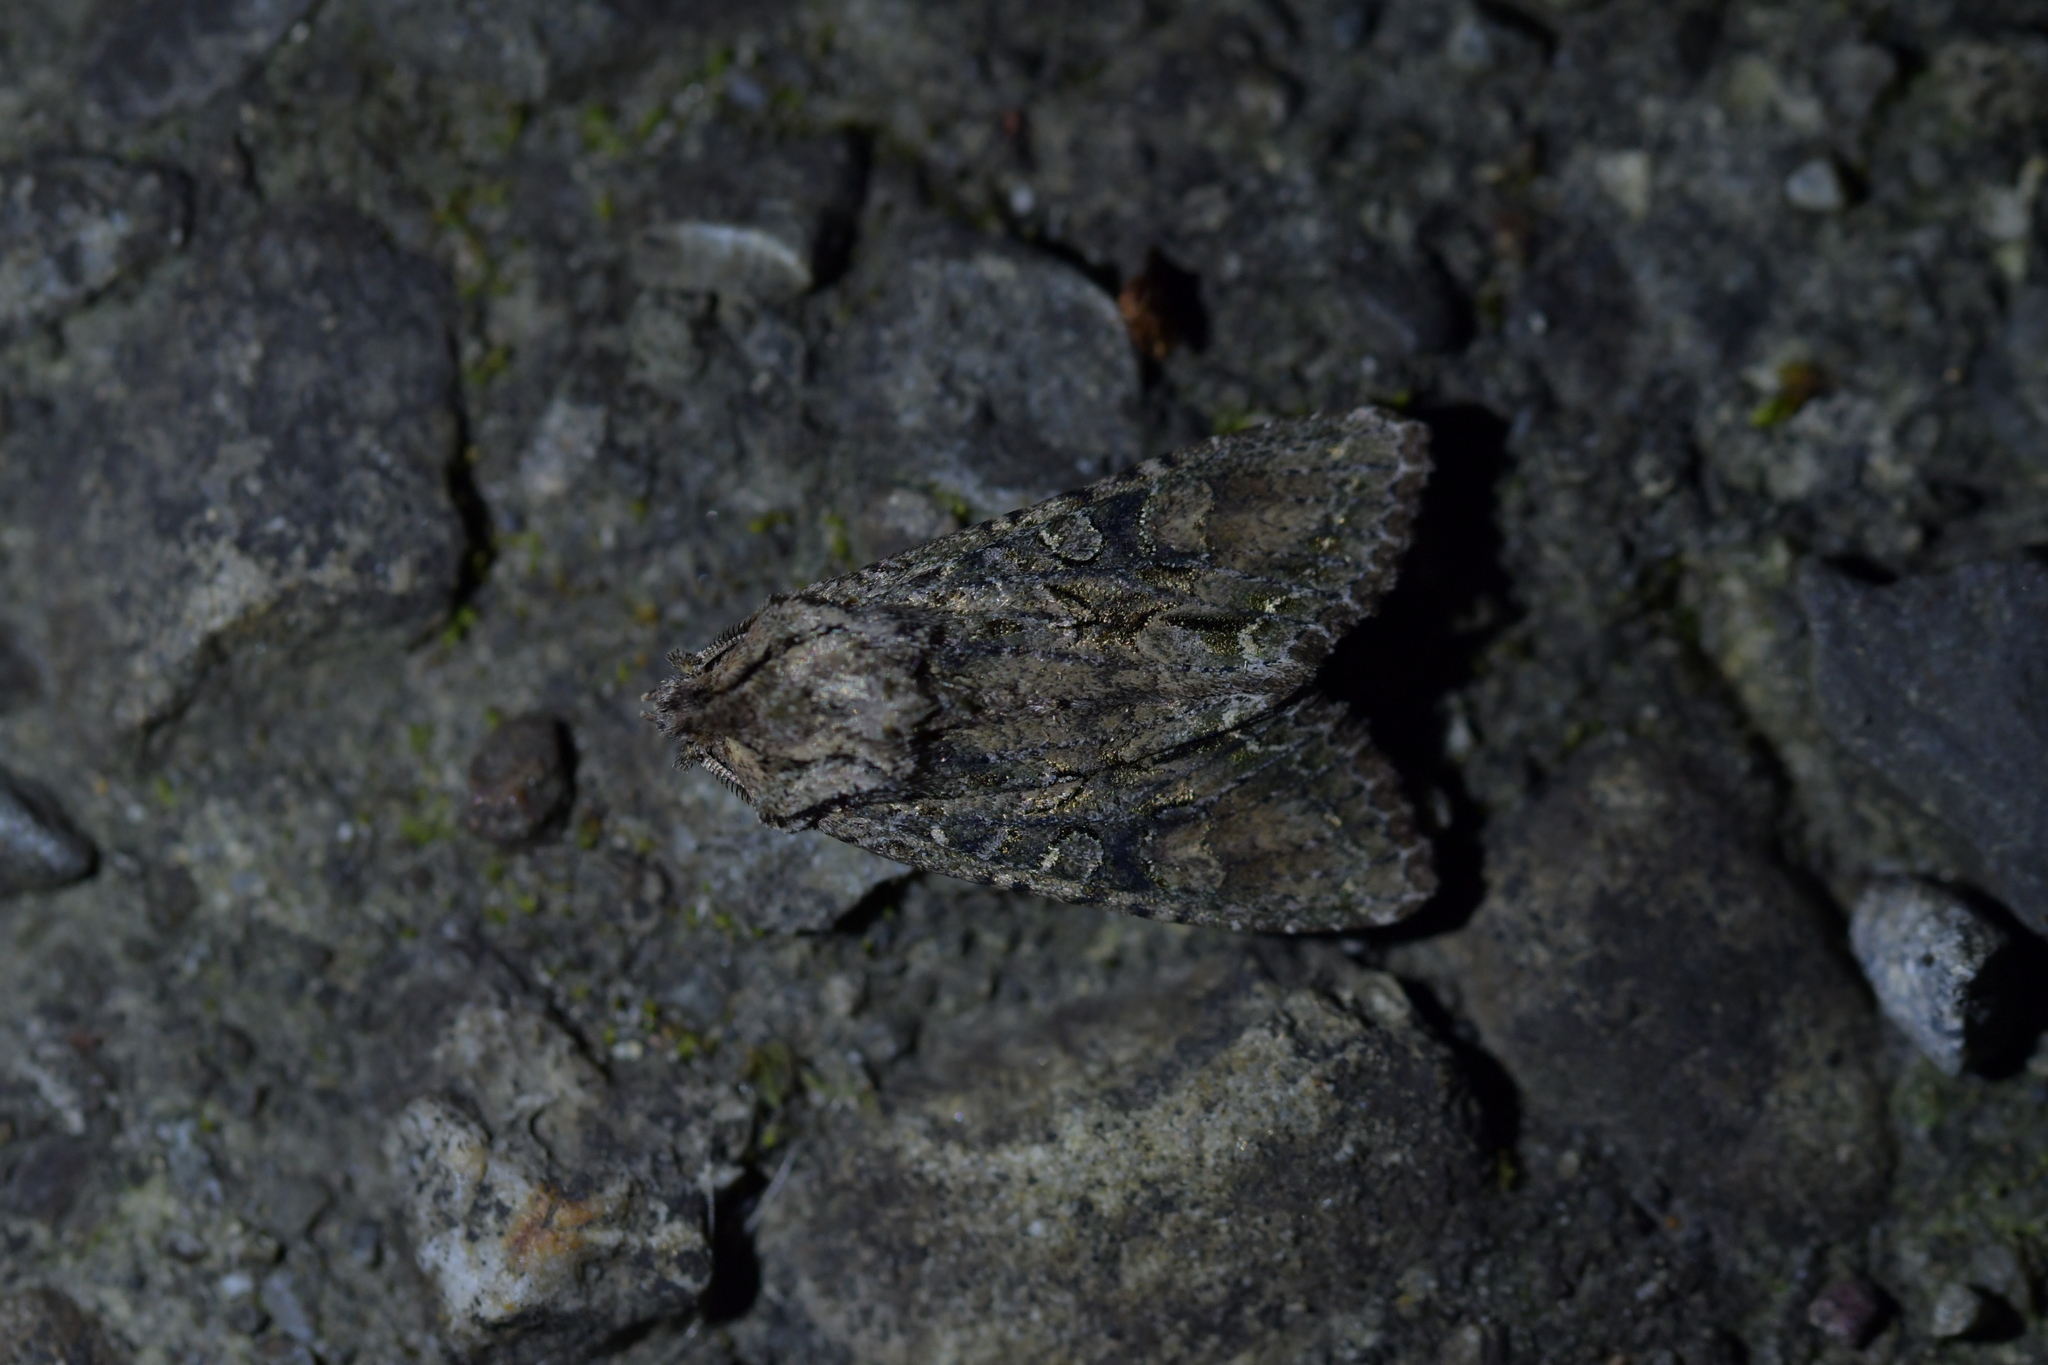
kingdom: Animalia
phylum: Arthropoda
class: Insecta
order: Lepidoptera
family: Noctuidae
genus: Ichneutica
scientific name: Ichneutica mutans
